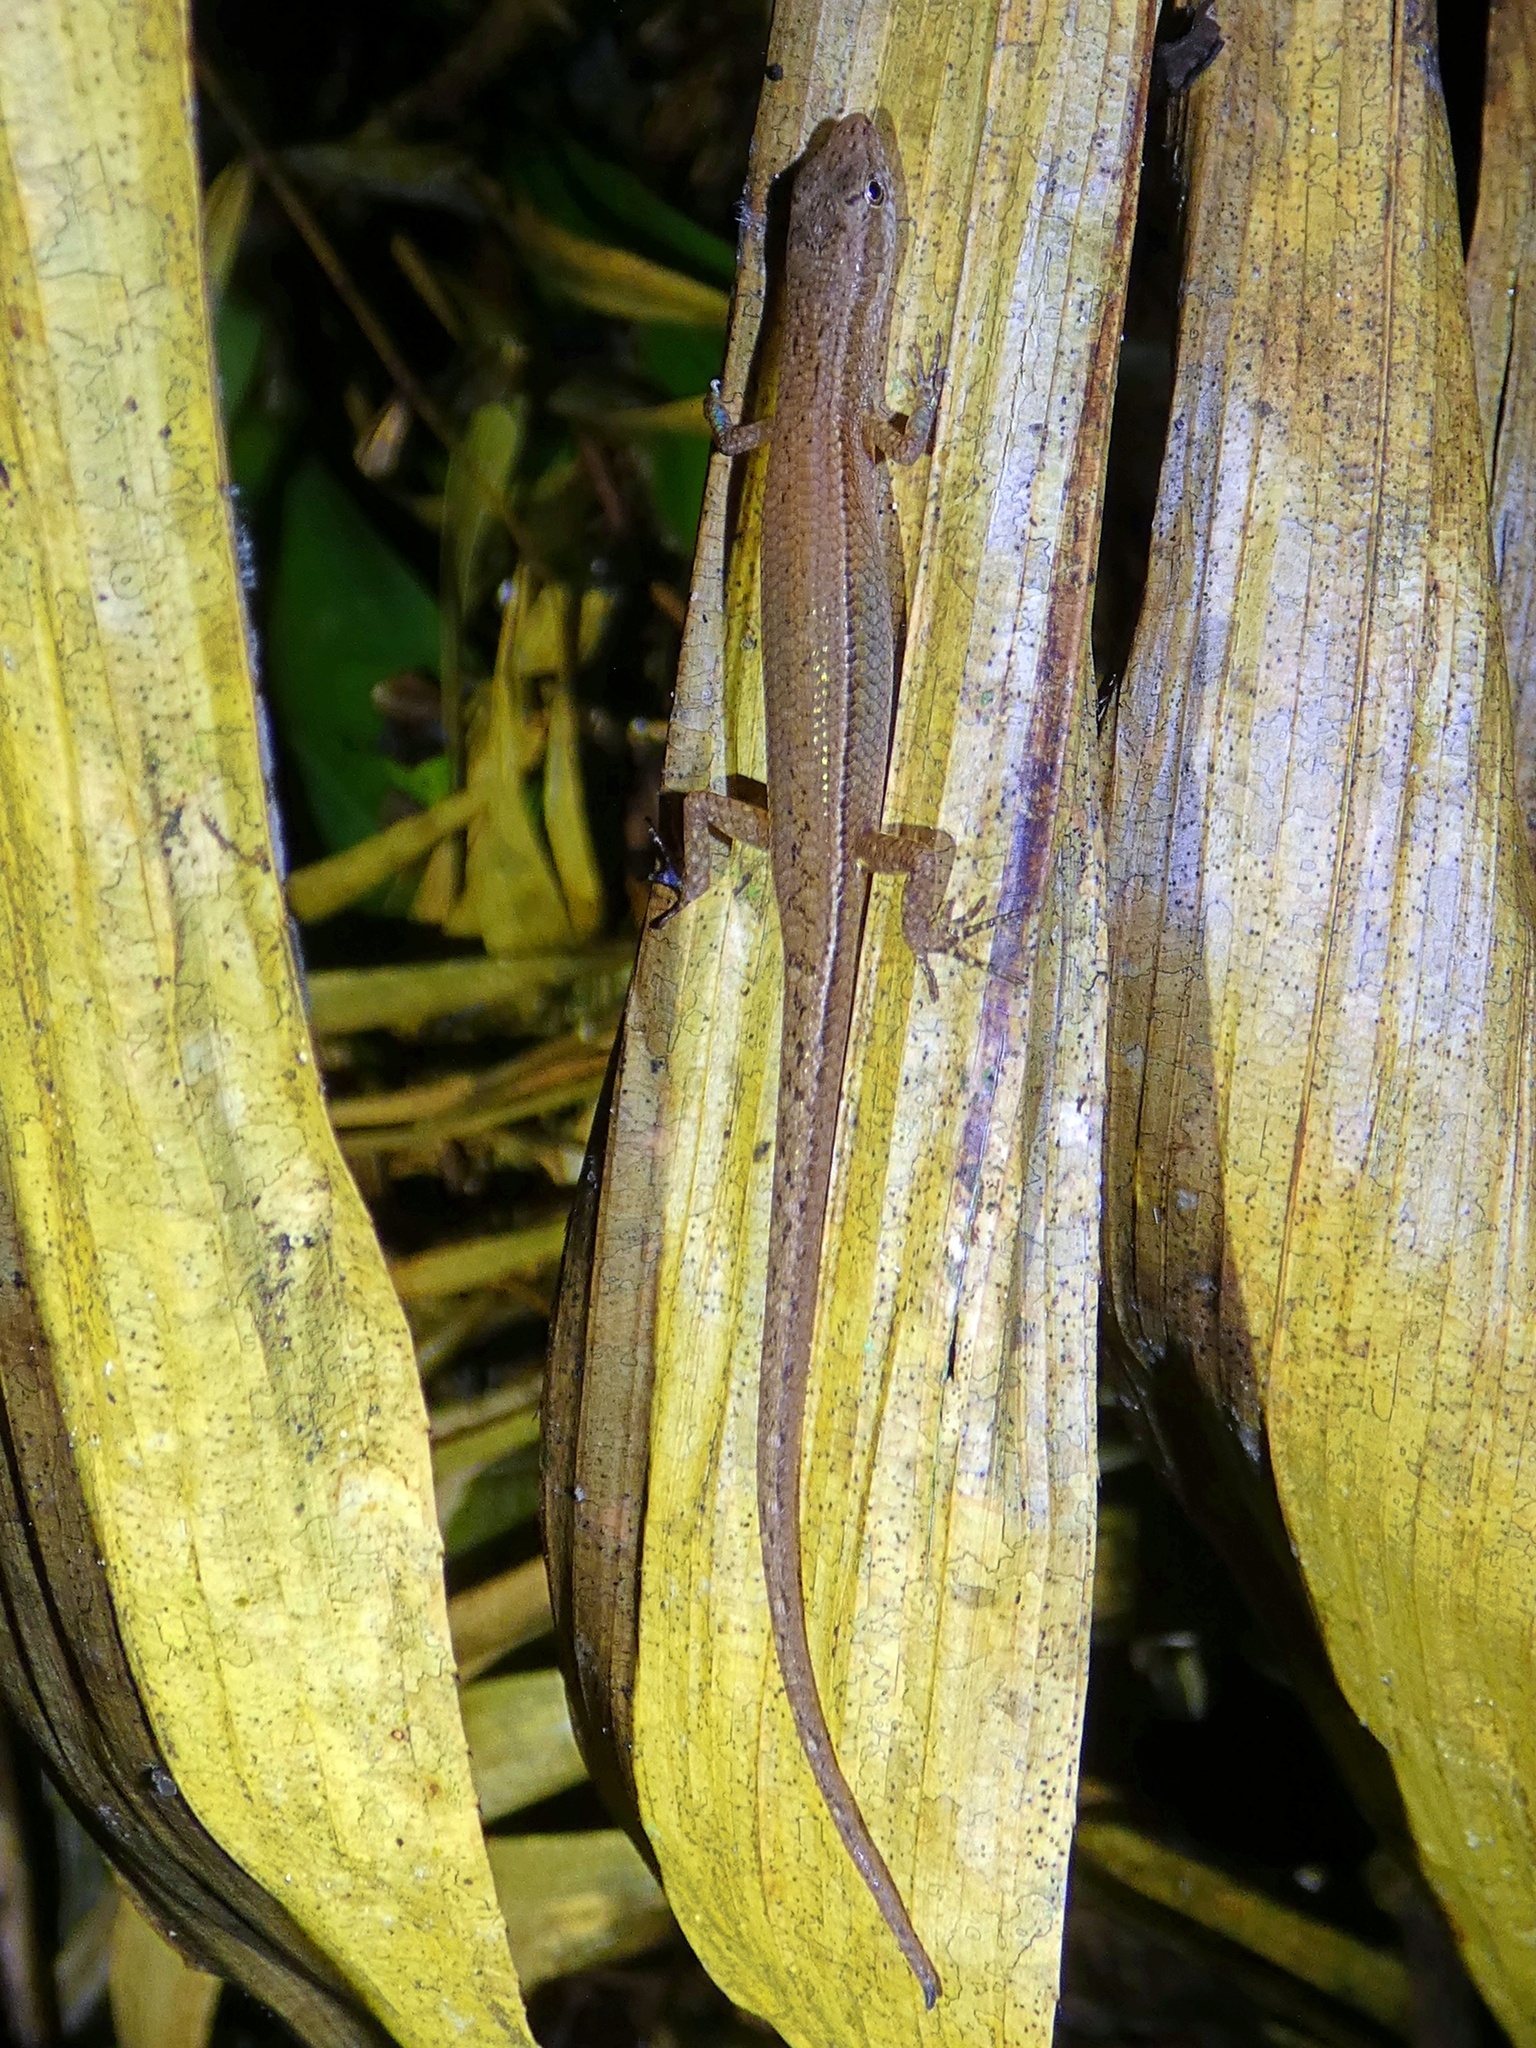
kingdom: Animalia
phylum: Chordata
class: Squamata
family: Scincidae
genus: Saproscincus
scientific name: Saproscincus basiliscus
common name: Pale-lipped shadeskink
